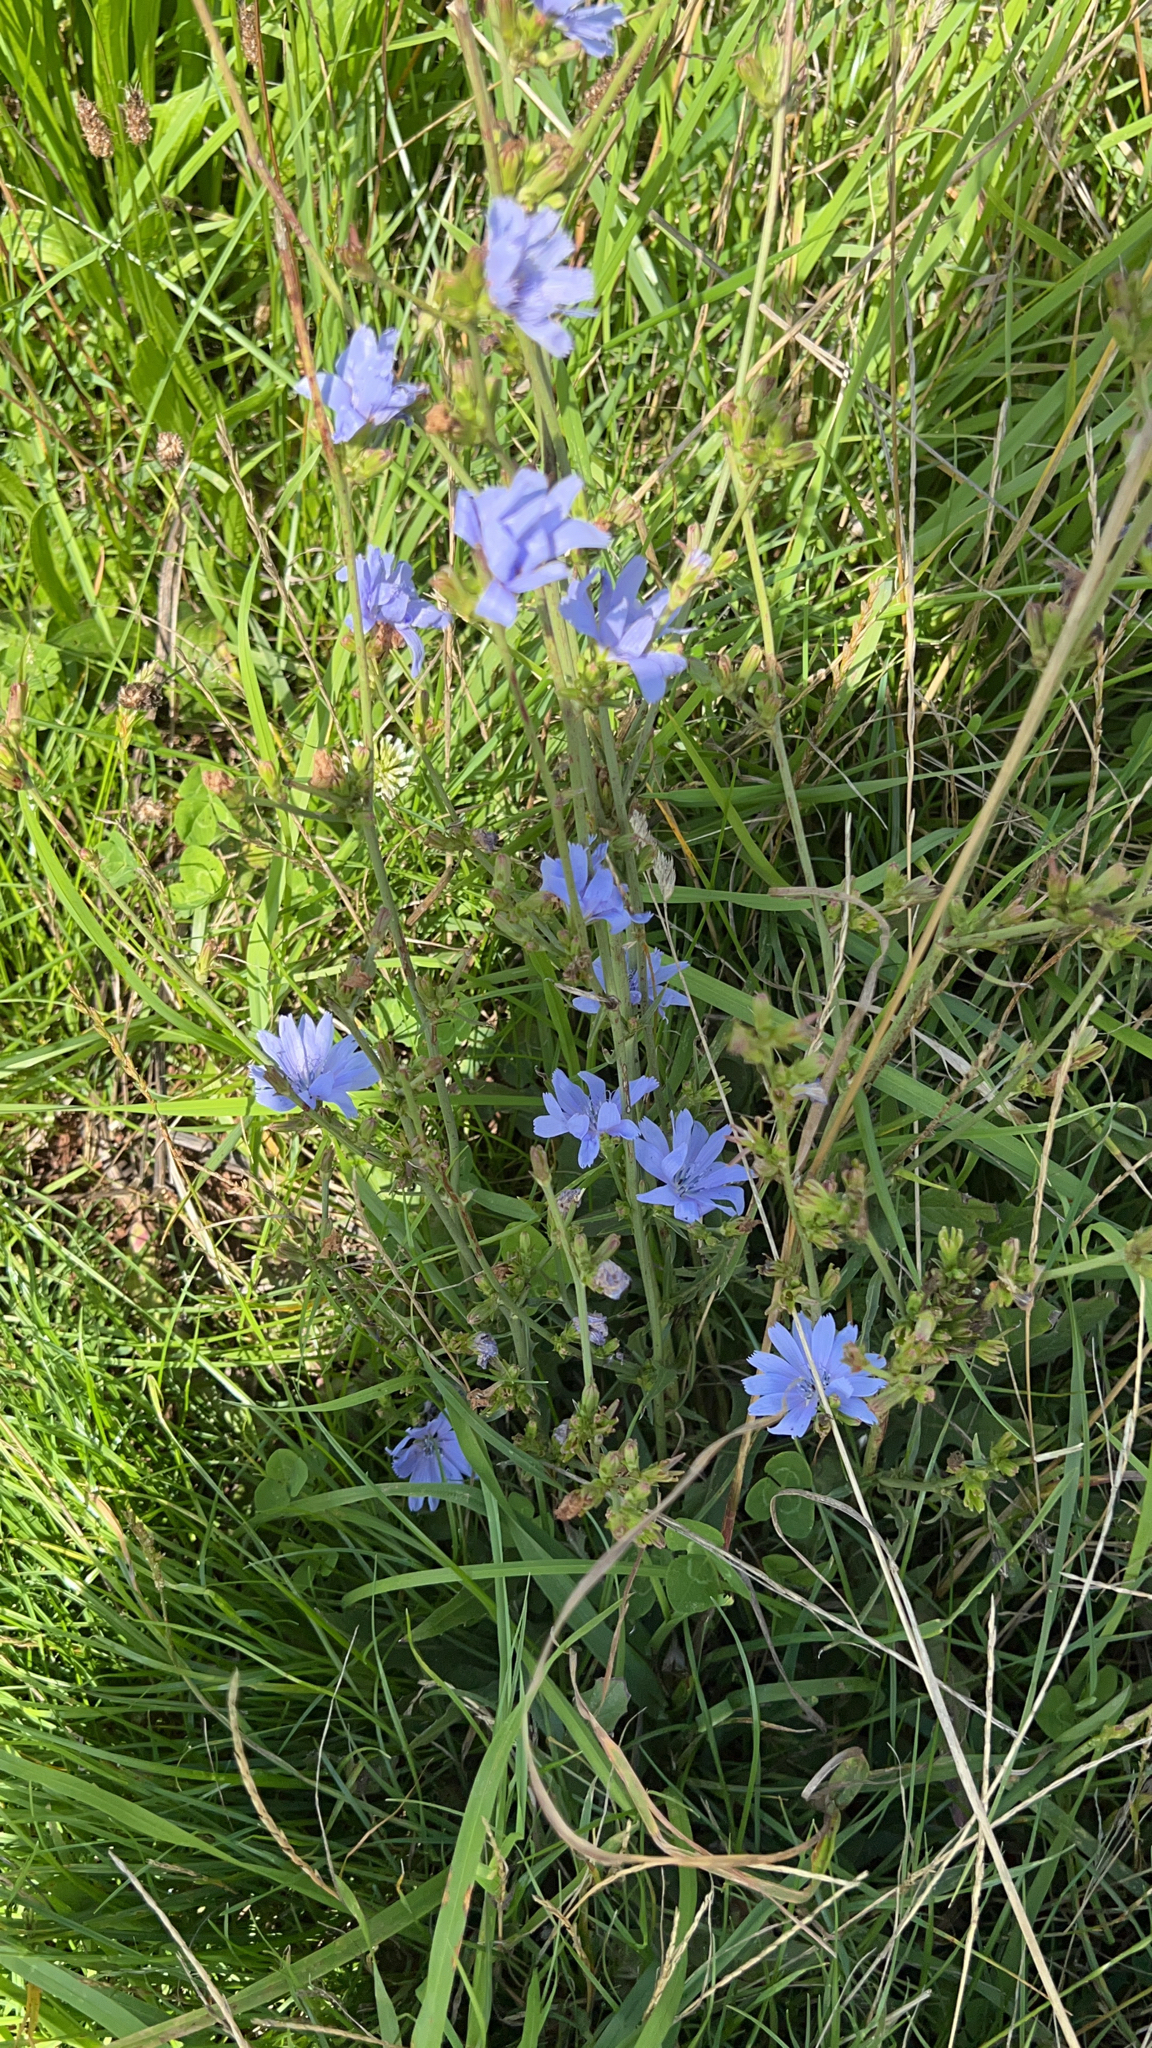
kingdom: Plantae
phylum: Tracheophyta
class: Magnoliopsida
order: Asterales
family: Asteraceae
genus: Cichorium
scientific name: Cichorium intybus
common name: Chicory
